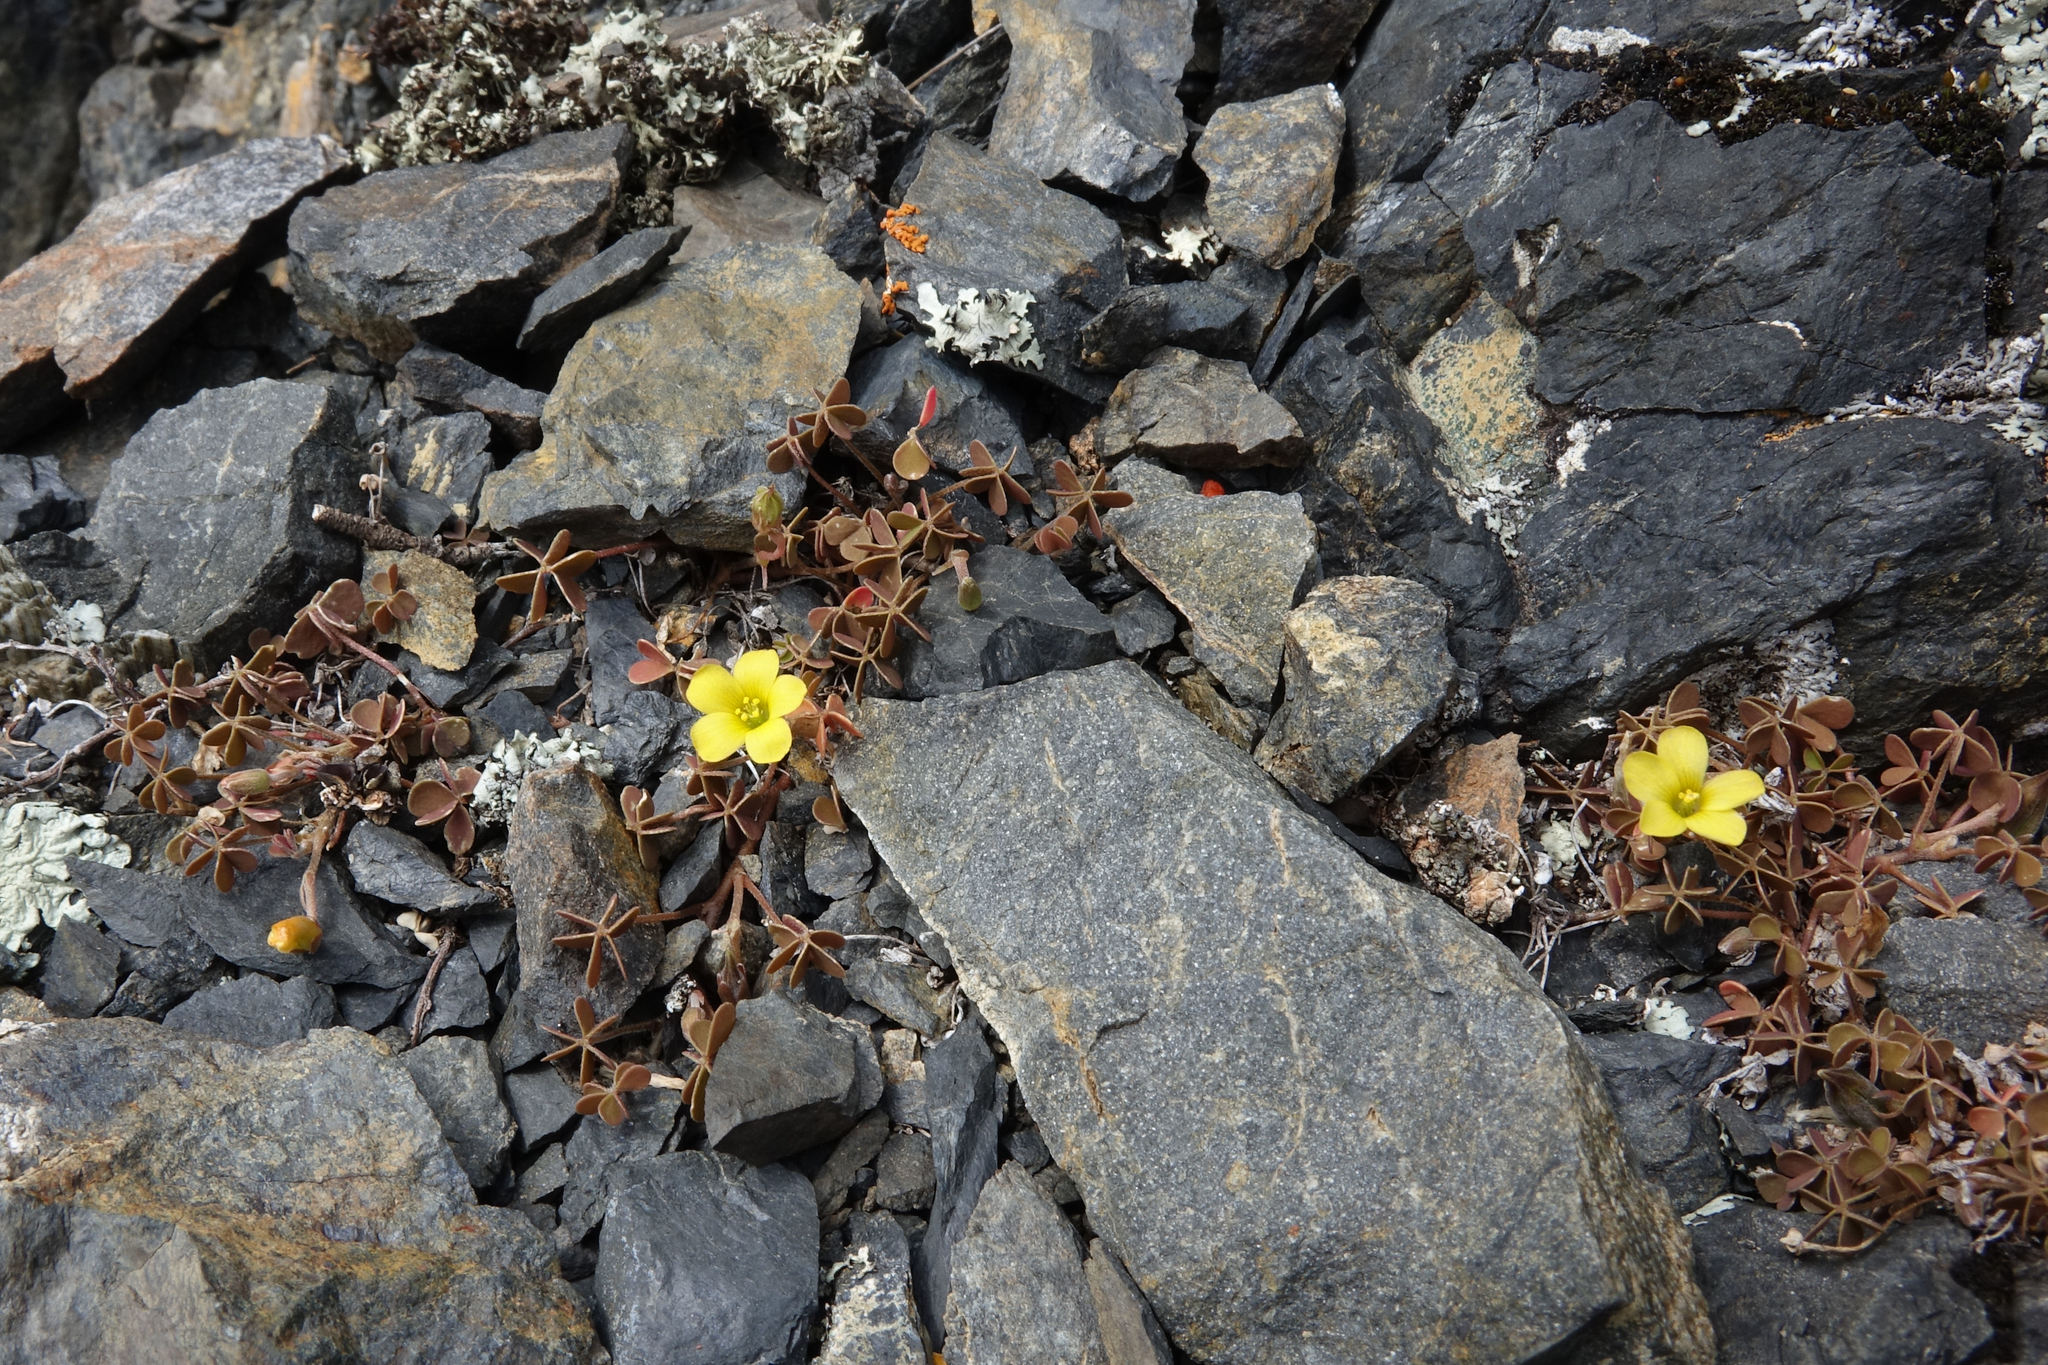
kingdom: Plantae
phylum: Tracheophyta
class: Magnoliopsida
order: Oxalidales
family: Oxalidaceae
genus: Oxalis
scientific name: Oxalis exilis
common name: Least yellow-sorrel
